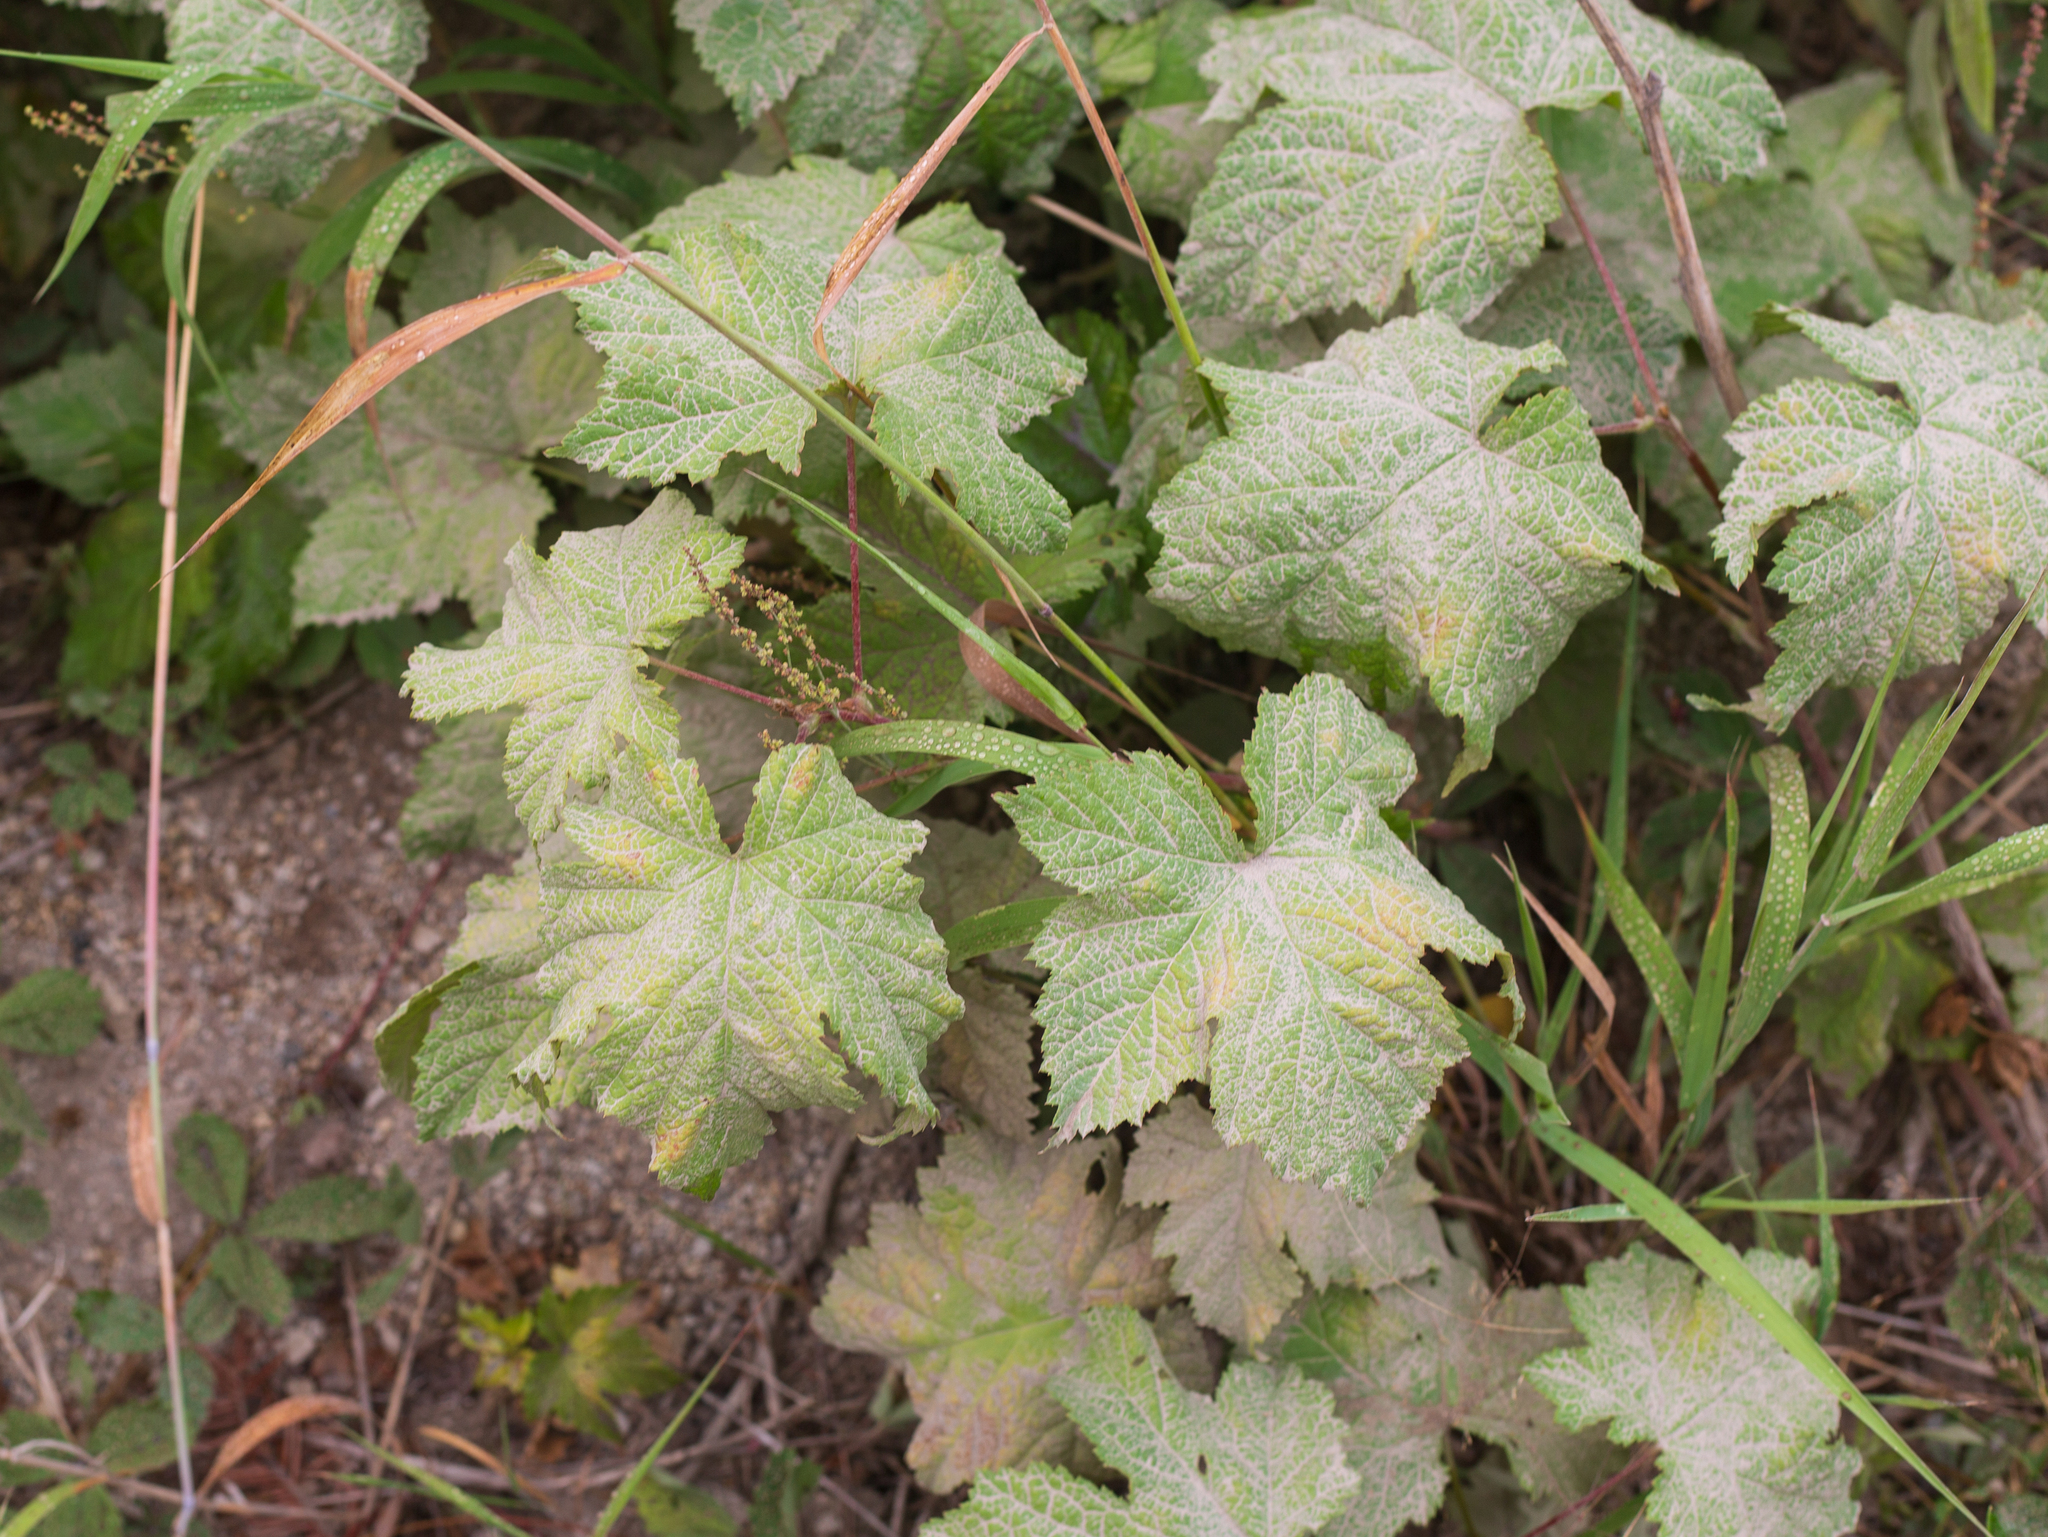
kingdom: Plantae
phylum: Tracheophyta
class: Magnoliopsida
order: Rosales
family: Rosaceae
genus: Rubus
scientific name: Rubus parviflorus
